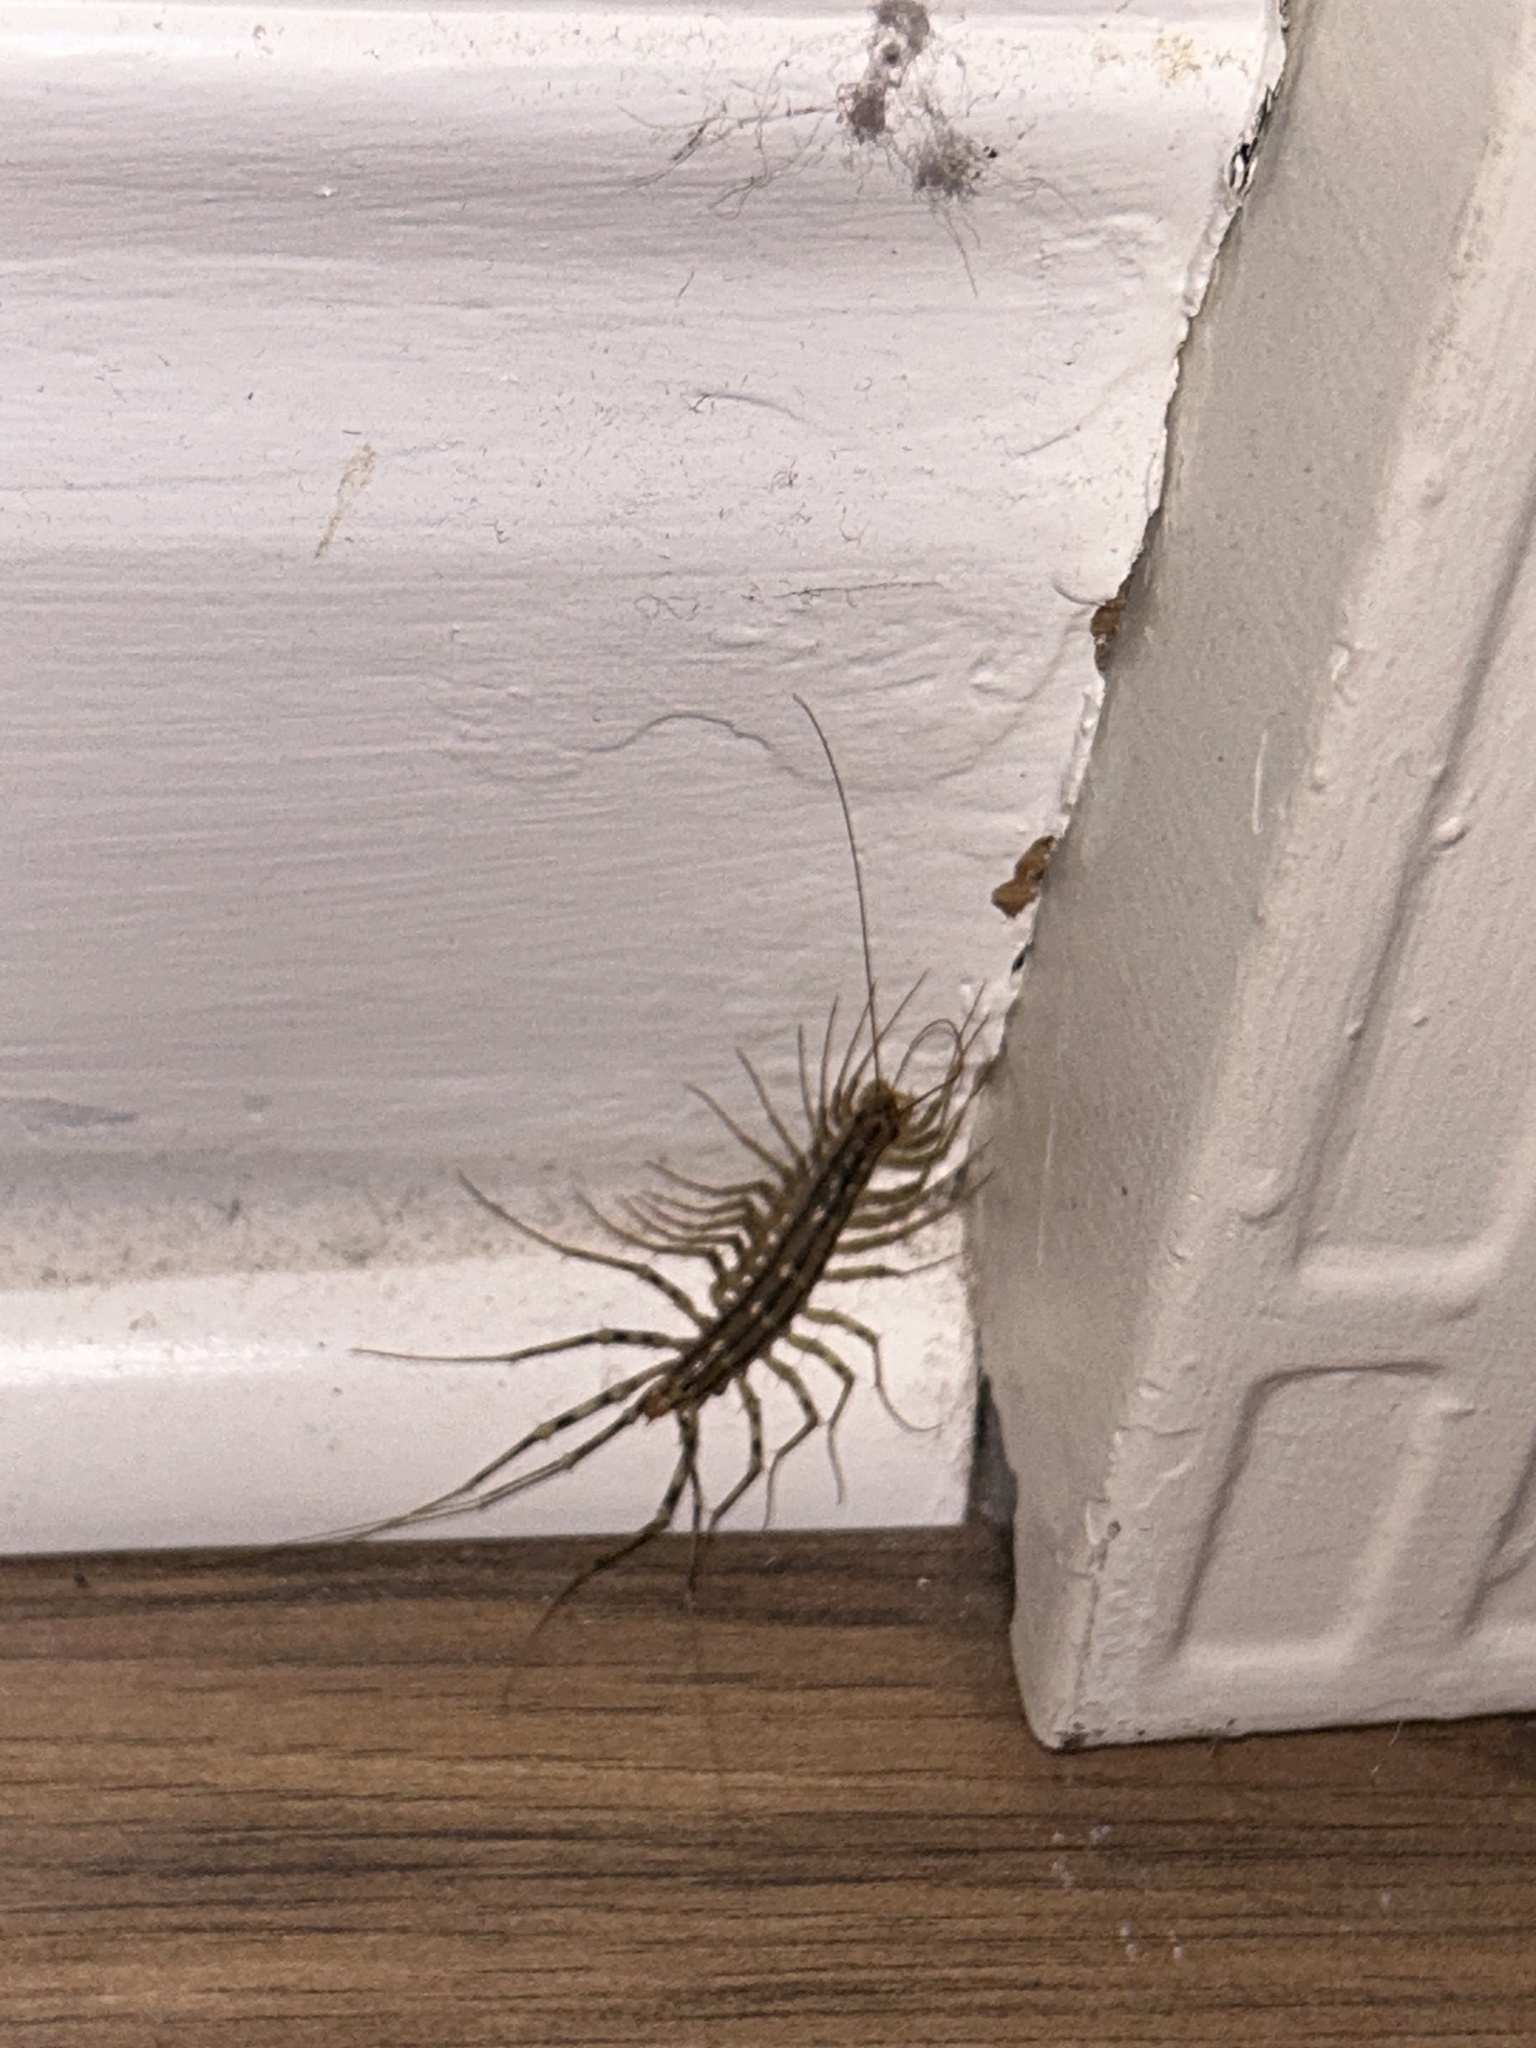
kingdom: Animalia
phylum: Arthropoda
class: Chilopoda
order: Scutigeromorpha
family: Scutigeridae
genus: Scutigera
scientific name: Scutigera coleoptrata
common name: House centipede
